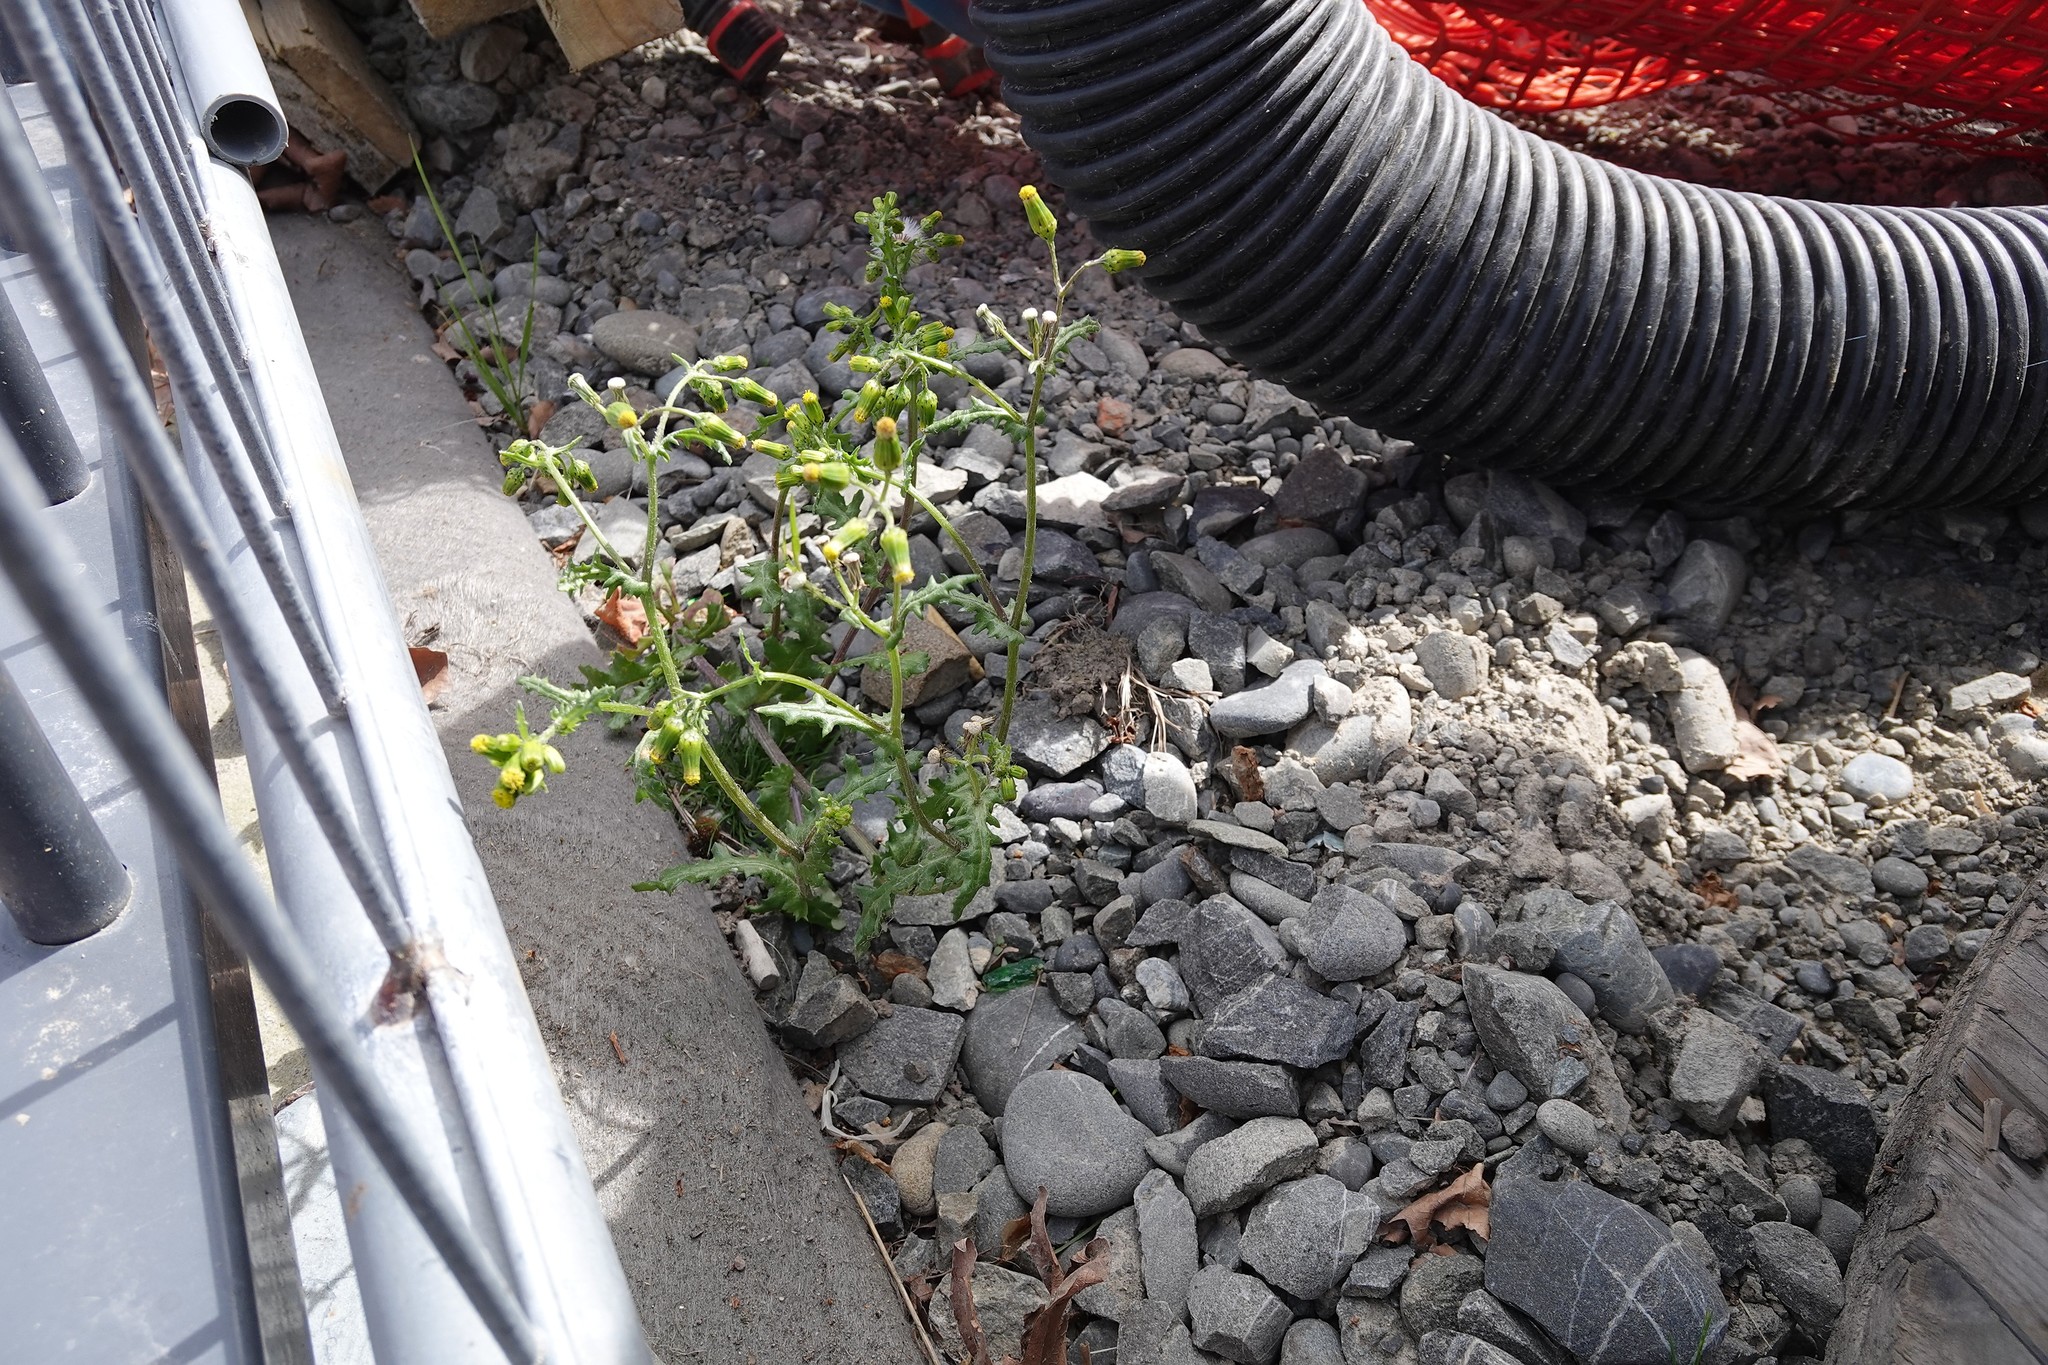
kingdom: Plantae
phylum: Tracheophyta
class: Magnoliopsida
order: Asterales
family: Asteraceae
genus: Senecio
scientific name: Senecio vulgaris
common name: Old-man-in-the-spring
